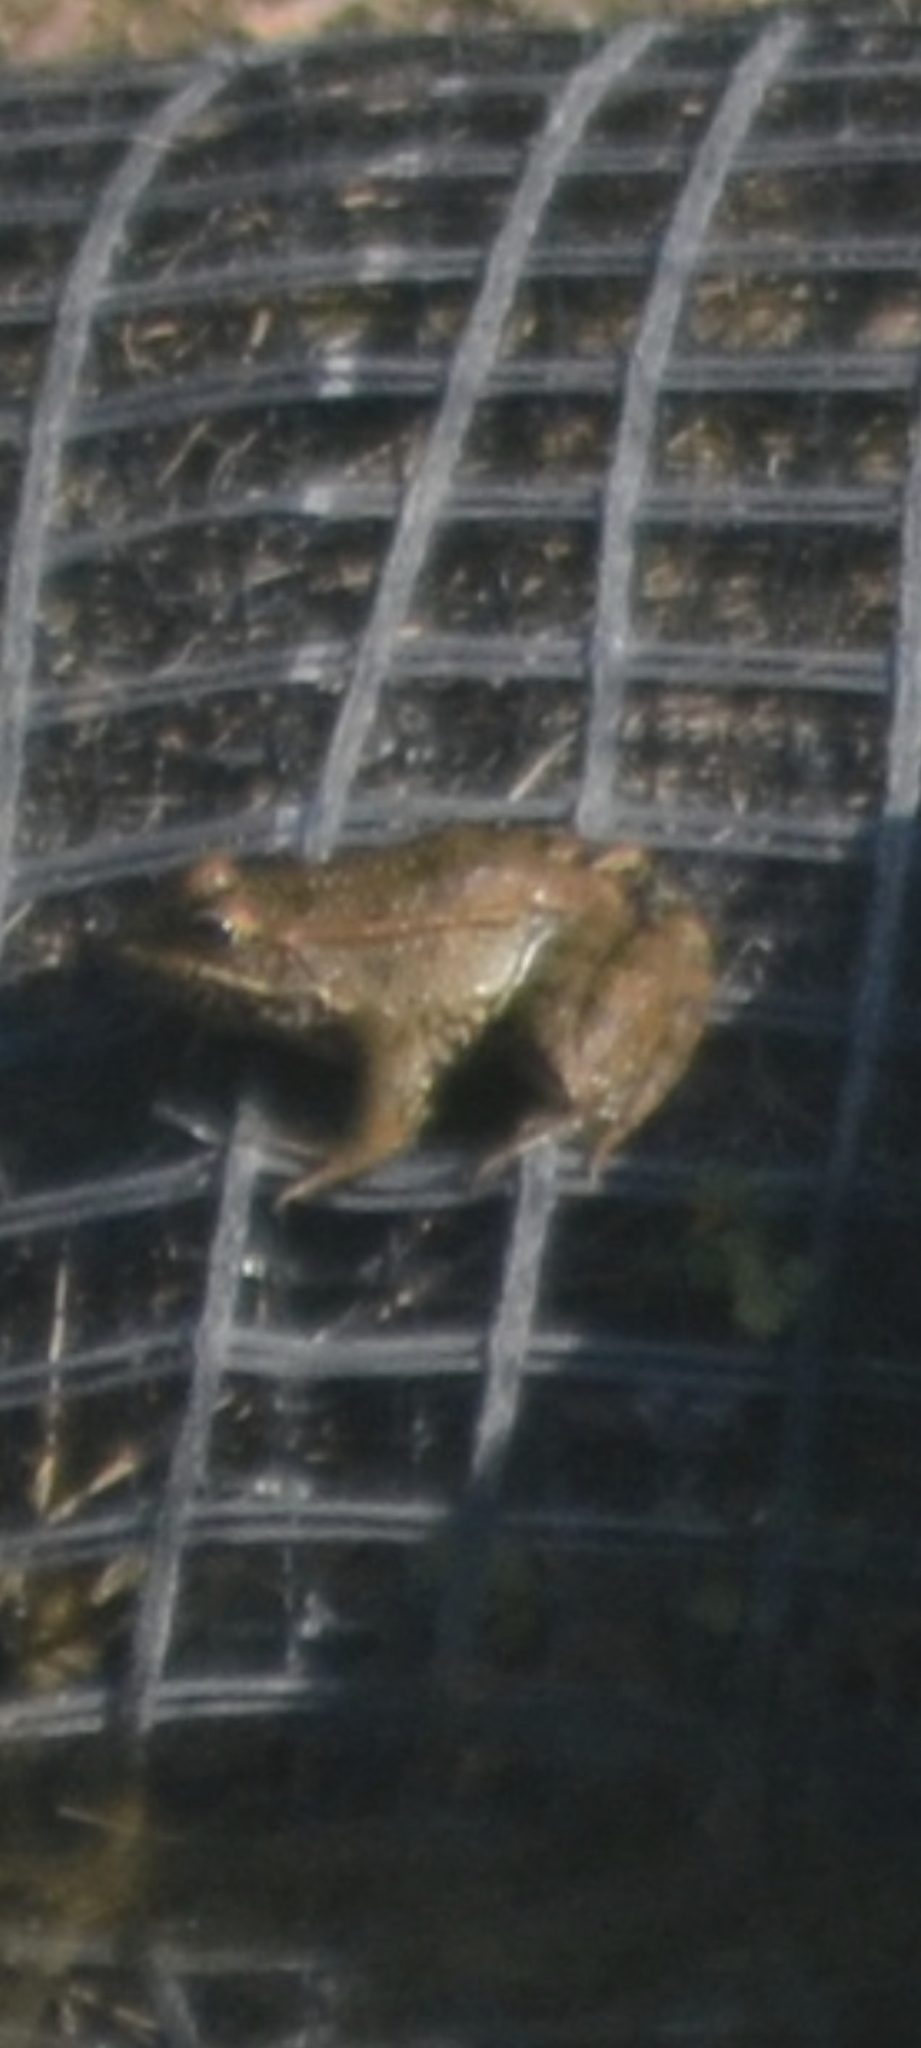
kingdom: Animalia
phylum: Chordata
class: Amphibia
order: Anura
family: Ranidae
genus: Pelophylax
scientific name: Pelophylax perezi
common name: Perez's frog
